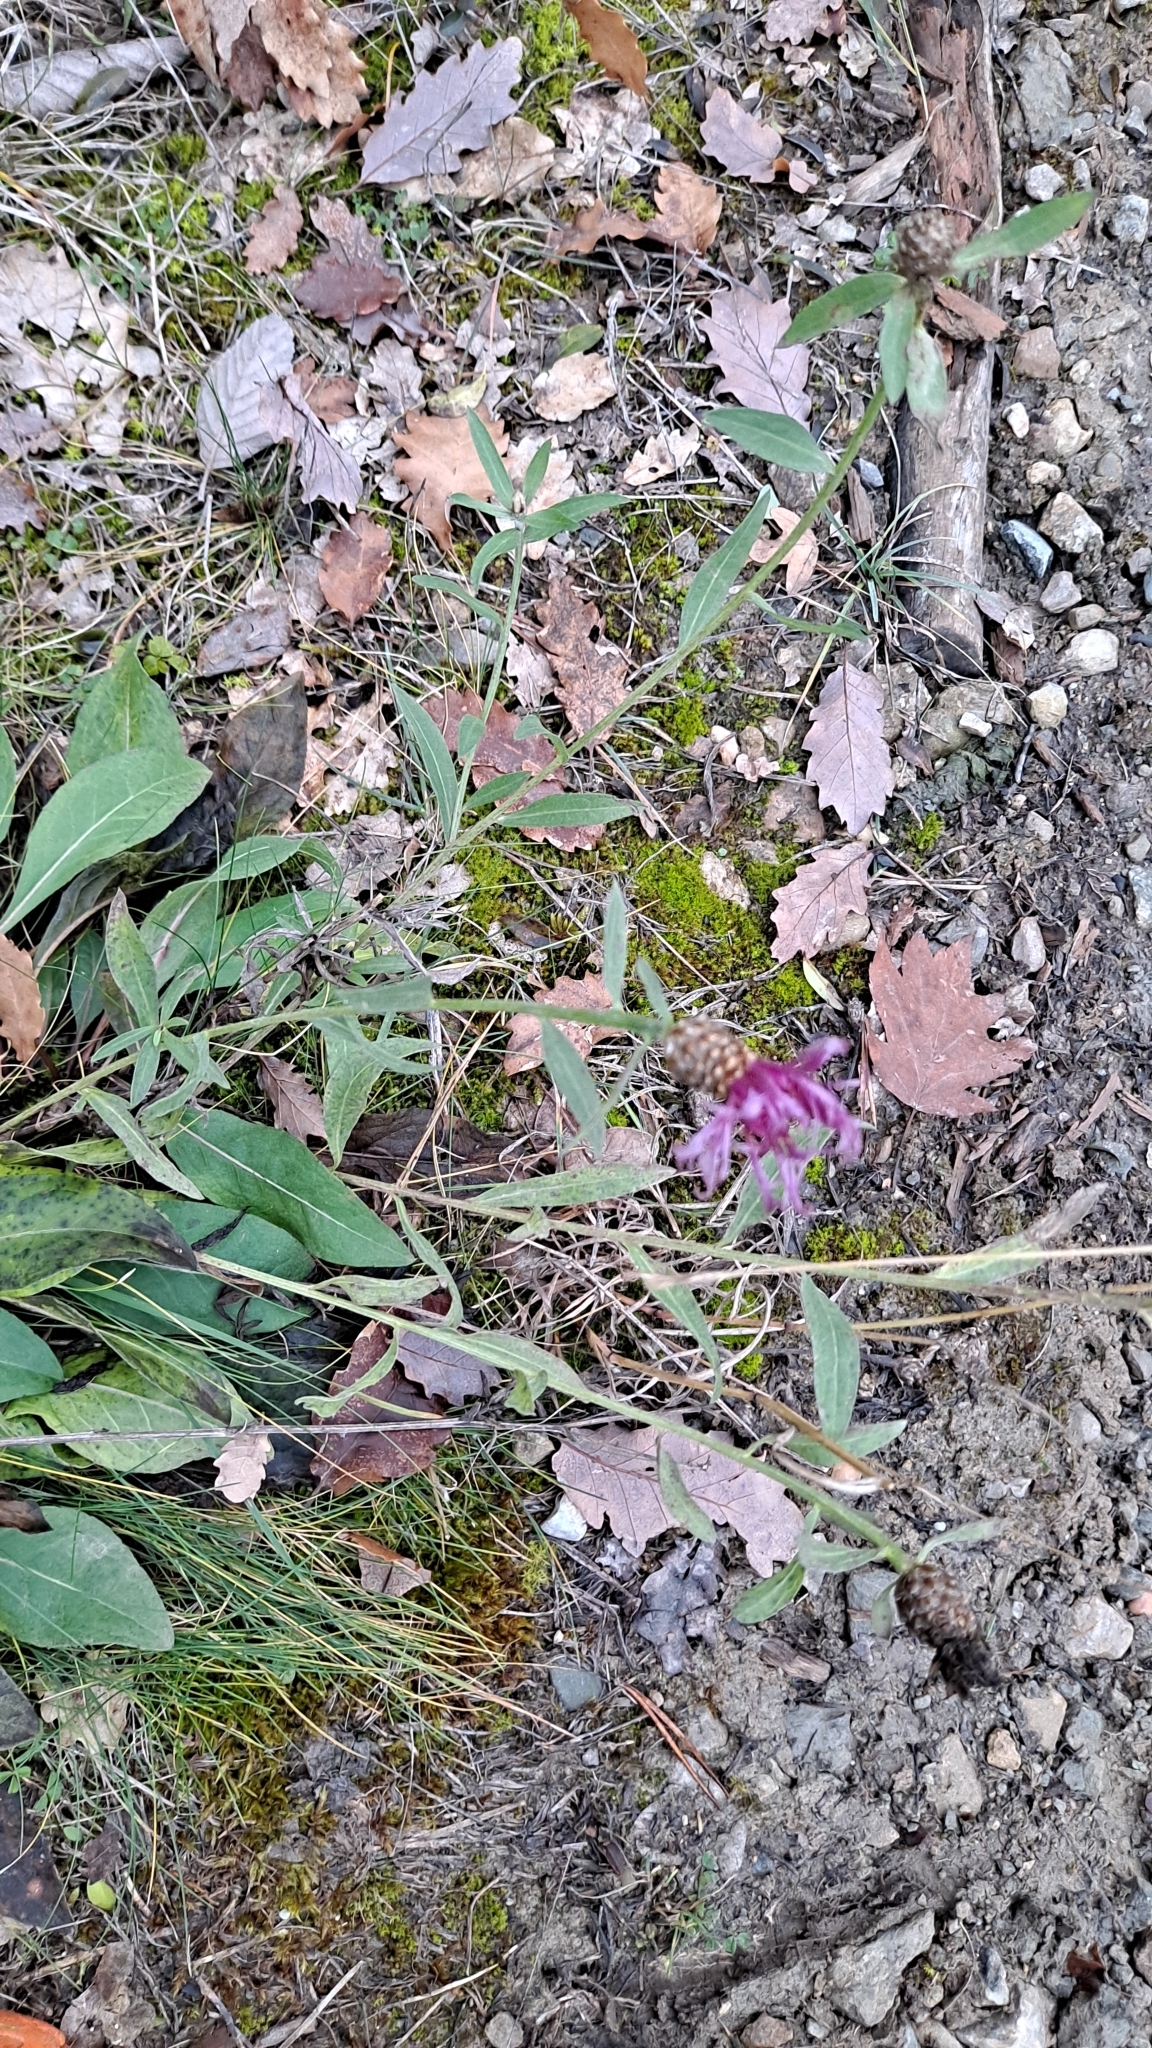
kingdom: Plantae
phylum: Tracheophyta
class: Magnoliopsida
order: Asterales
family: Asteraceae
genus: Centaurea
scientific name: Centaurea jacea
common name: Brown knapweed
